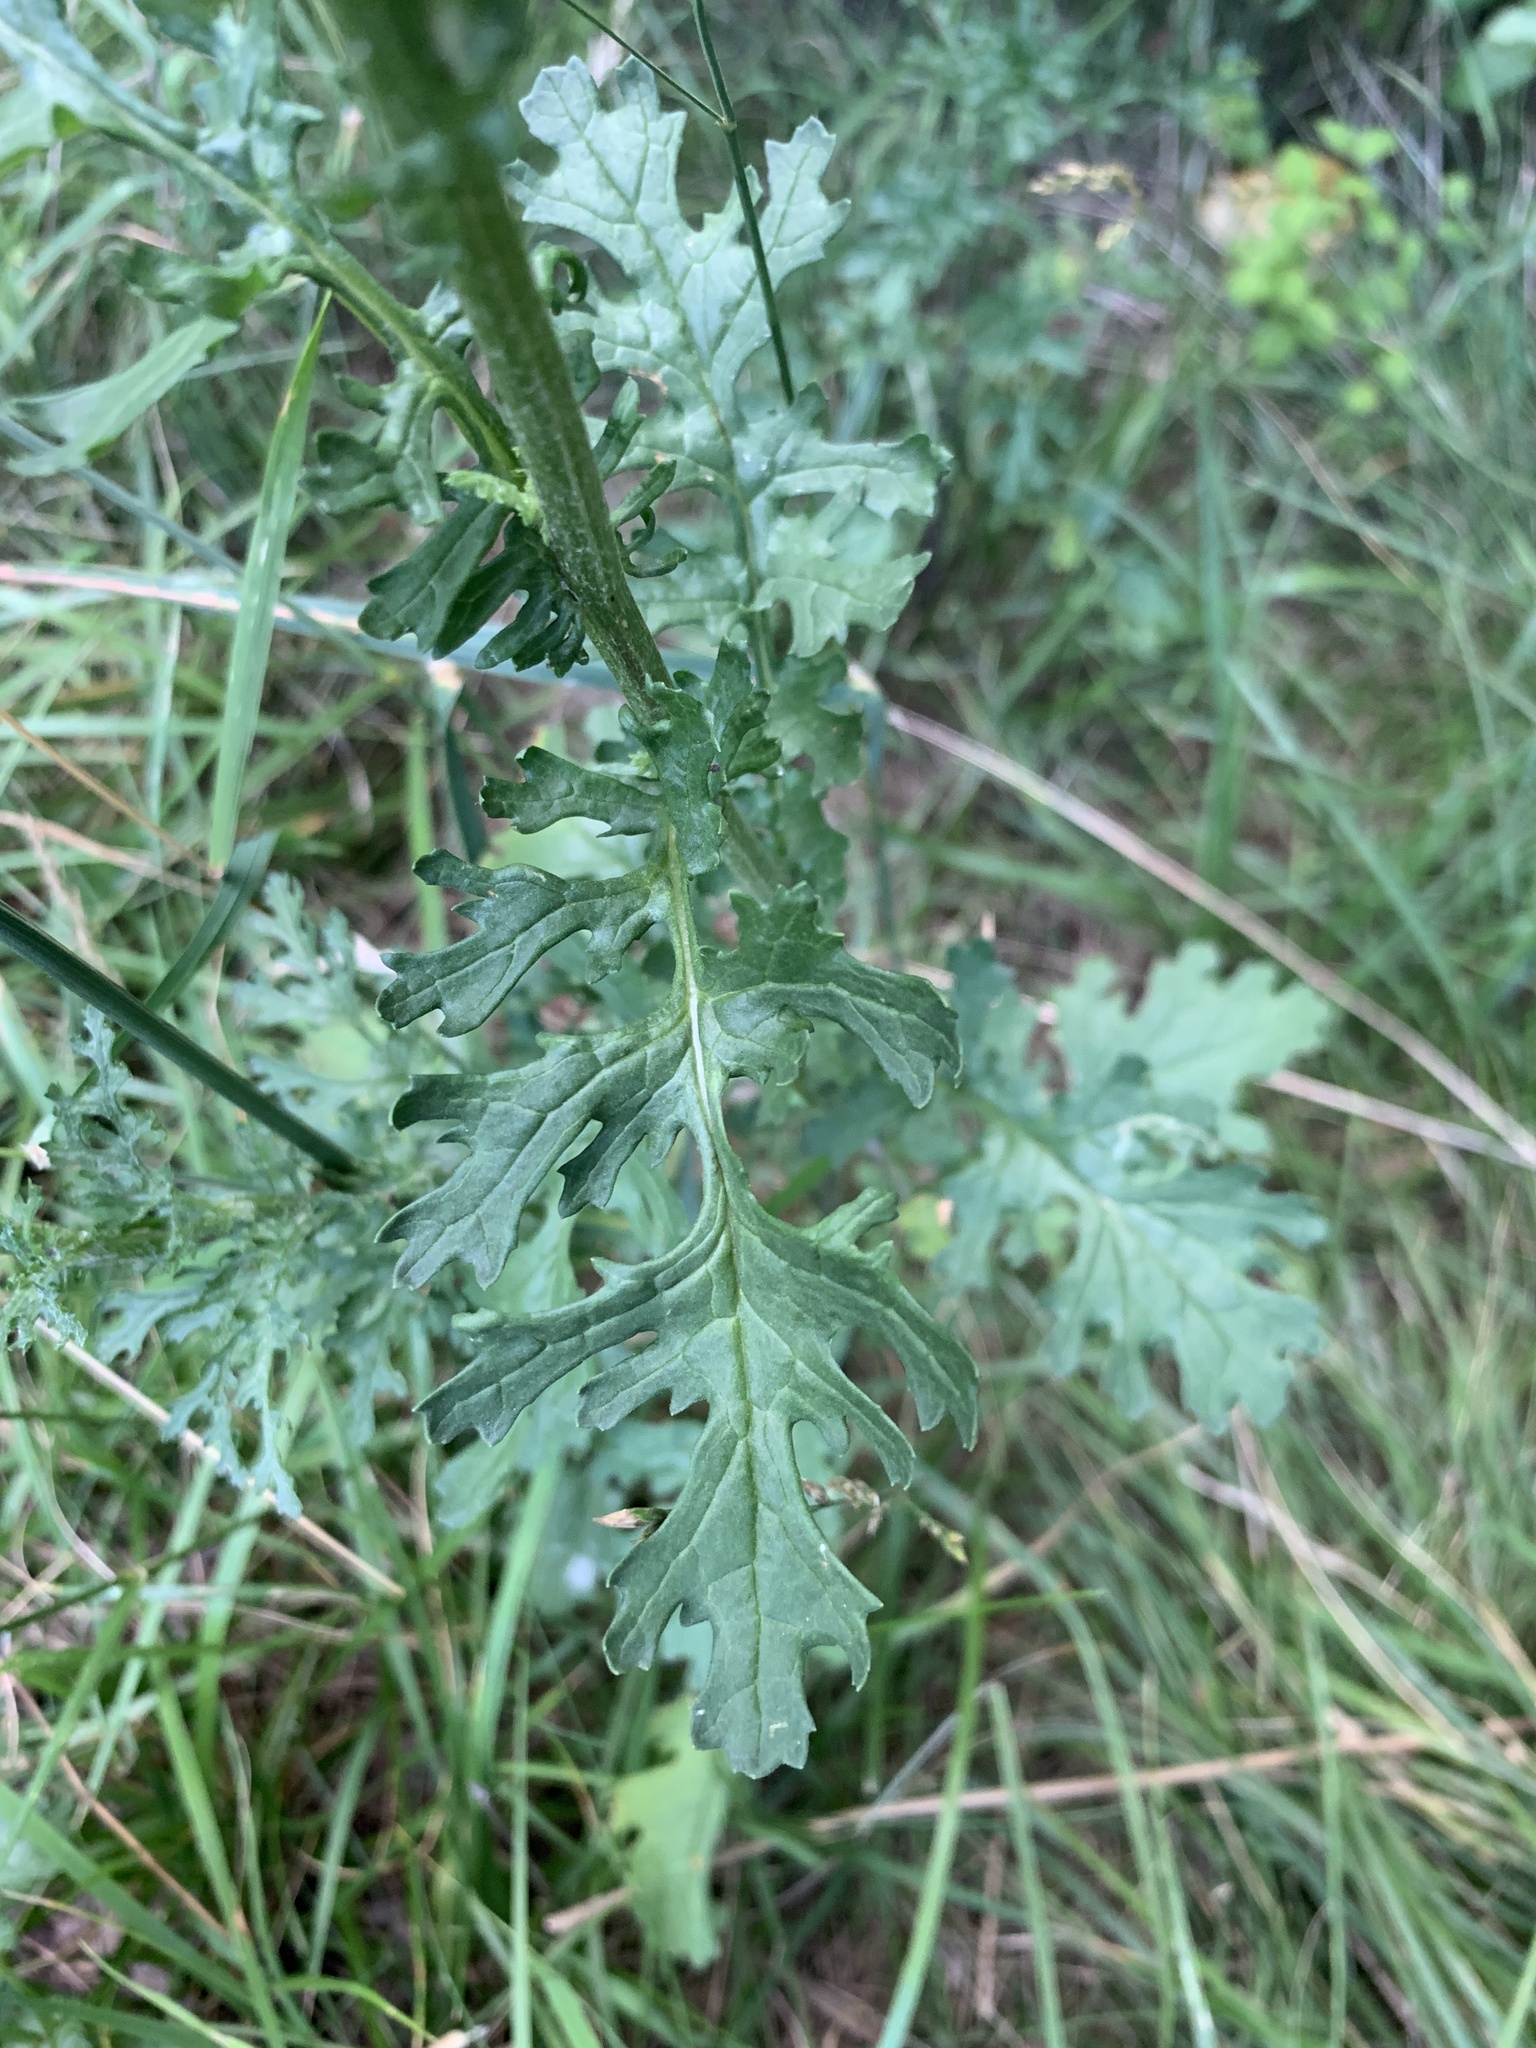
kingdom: Plantae
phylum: Tracheophyta
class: Magnoliopsida
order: Asterales
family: Asteraceae
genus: Jacobaea
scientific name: Jacobaea vulgaris
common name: Stinking willie
